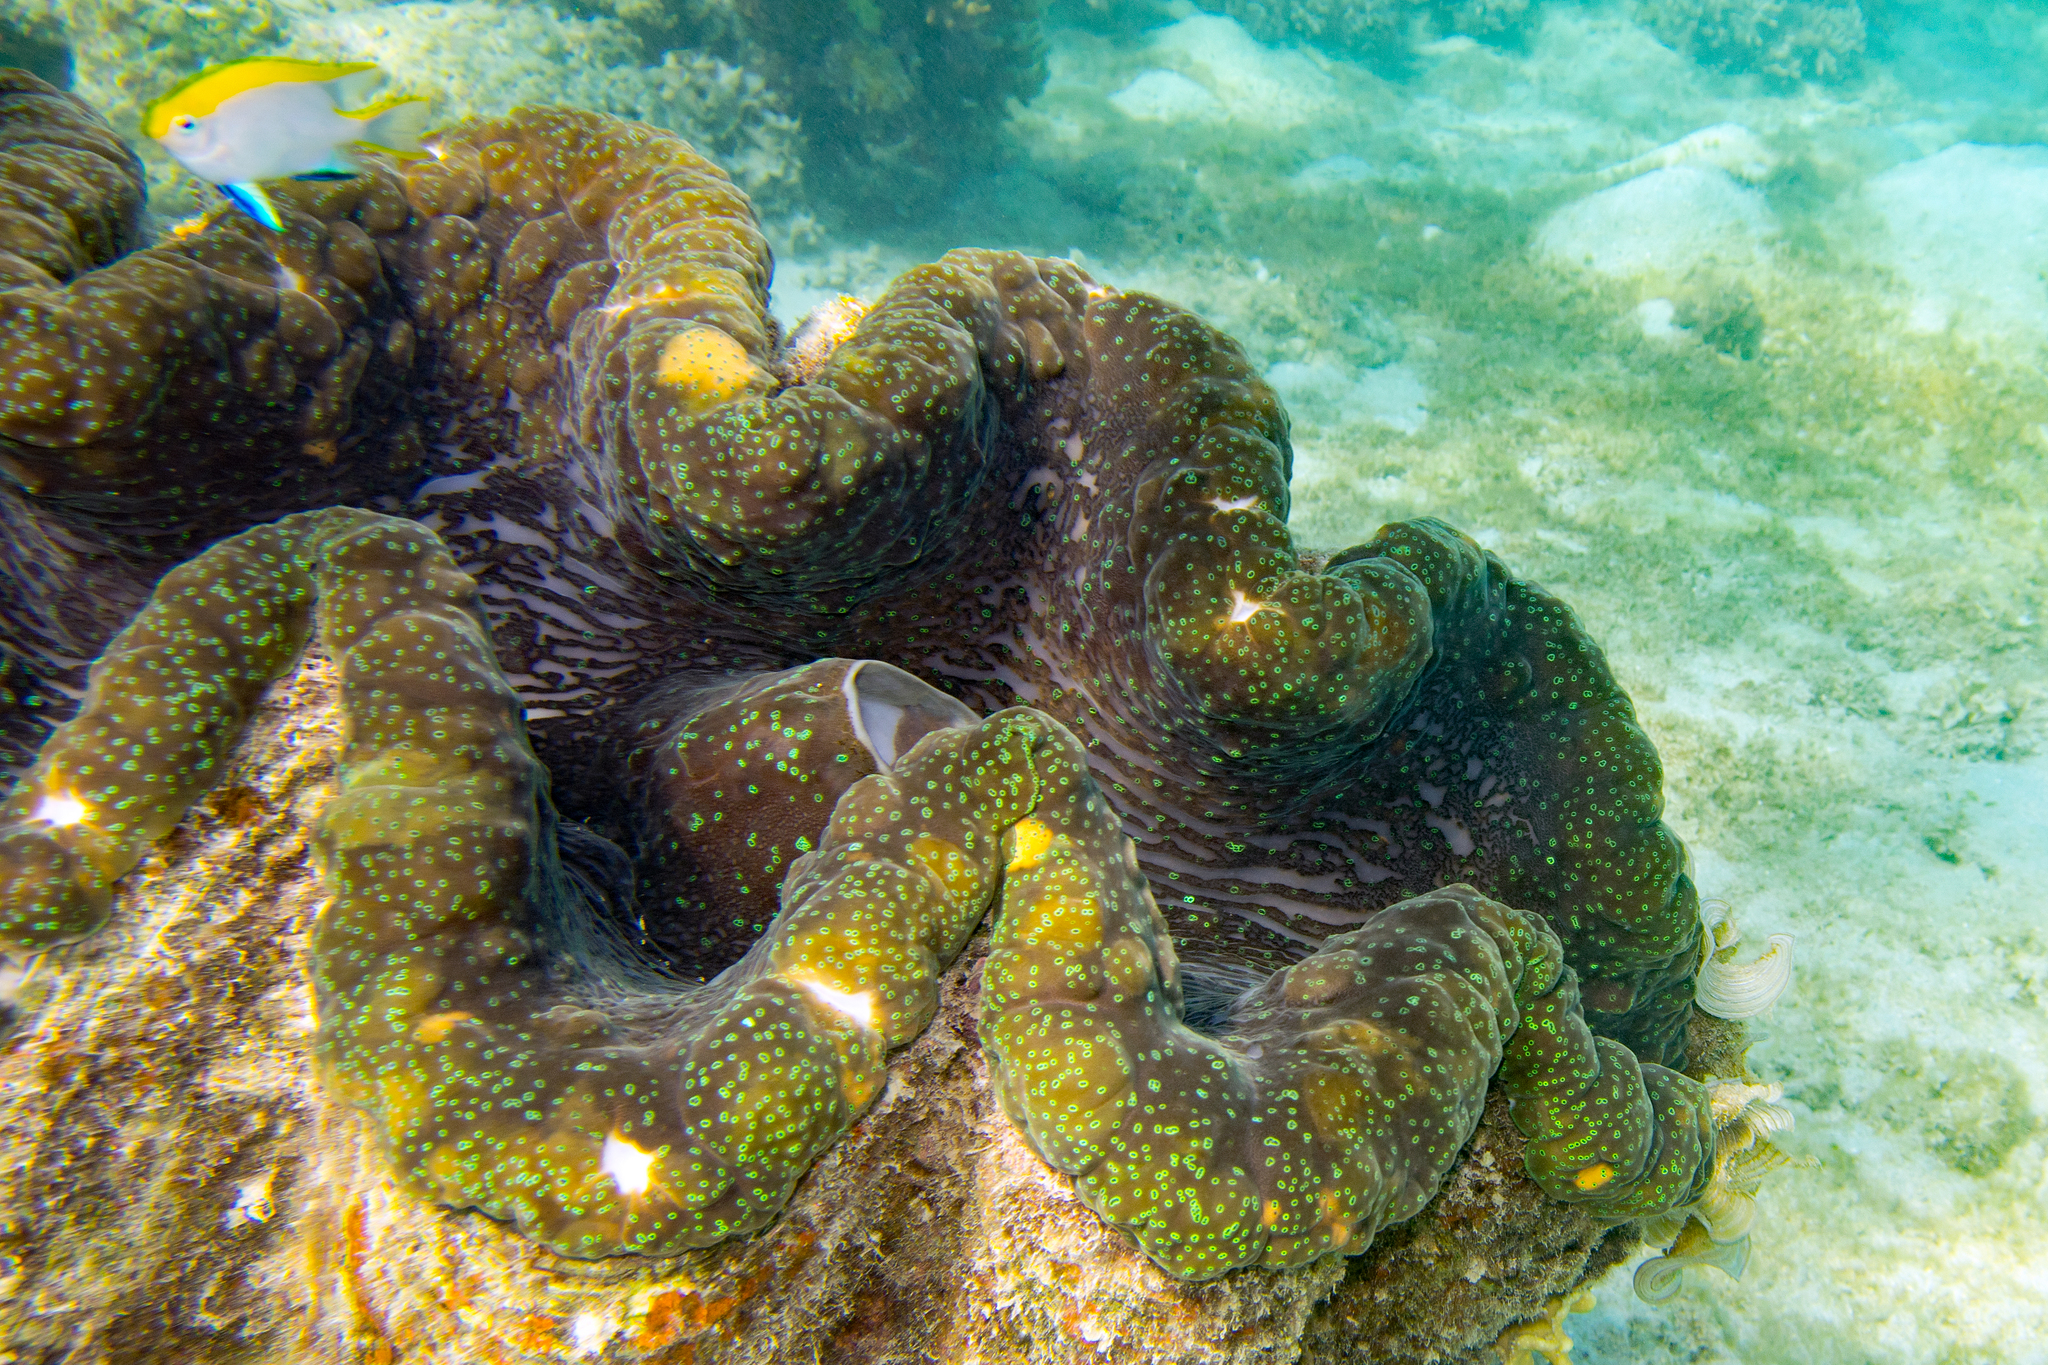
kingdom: Animalia
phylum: Mollusca
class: Bivalvia
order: Cardiida
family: Cardiidae
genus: Tridacna
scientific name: Tridacna gigas
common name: Giant clam
